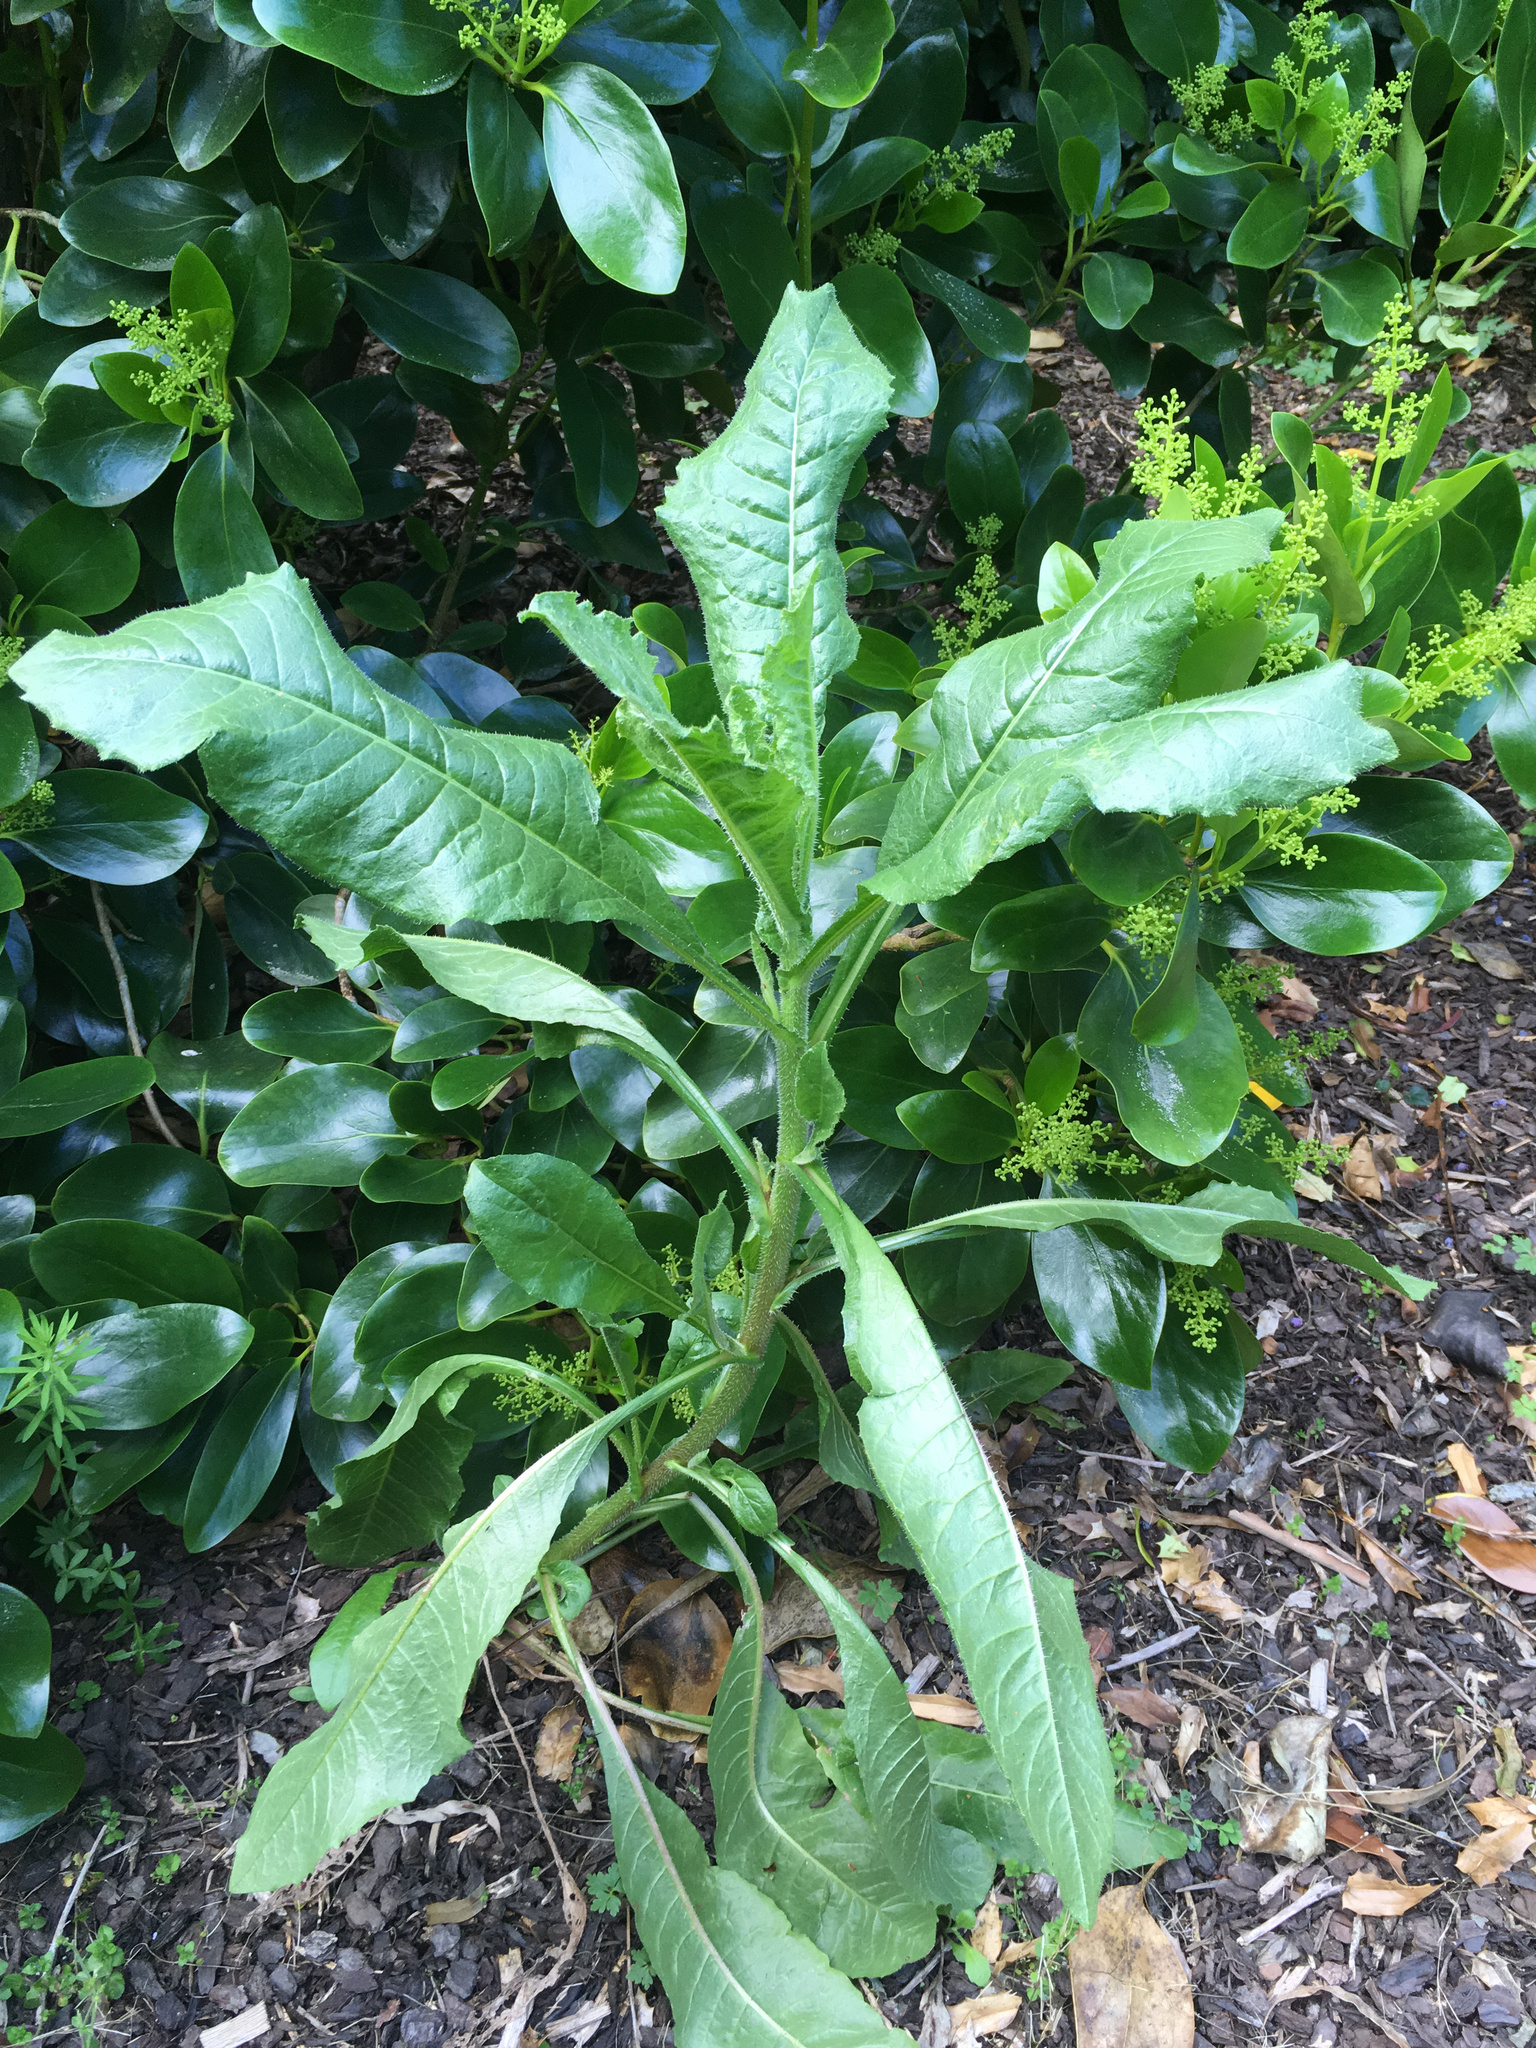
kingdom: Plantae
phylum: Tracheophyta
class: Magnoliopsida
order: Asterales
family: Asteraceae
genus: Helminthotheca
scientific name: Helminthotheca echioides
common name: Ox-tongue
